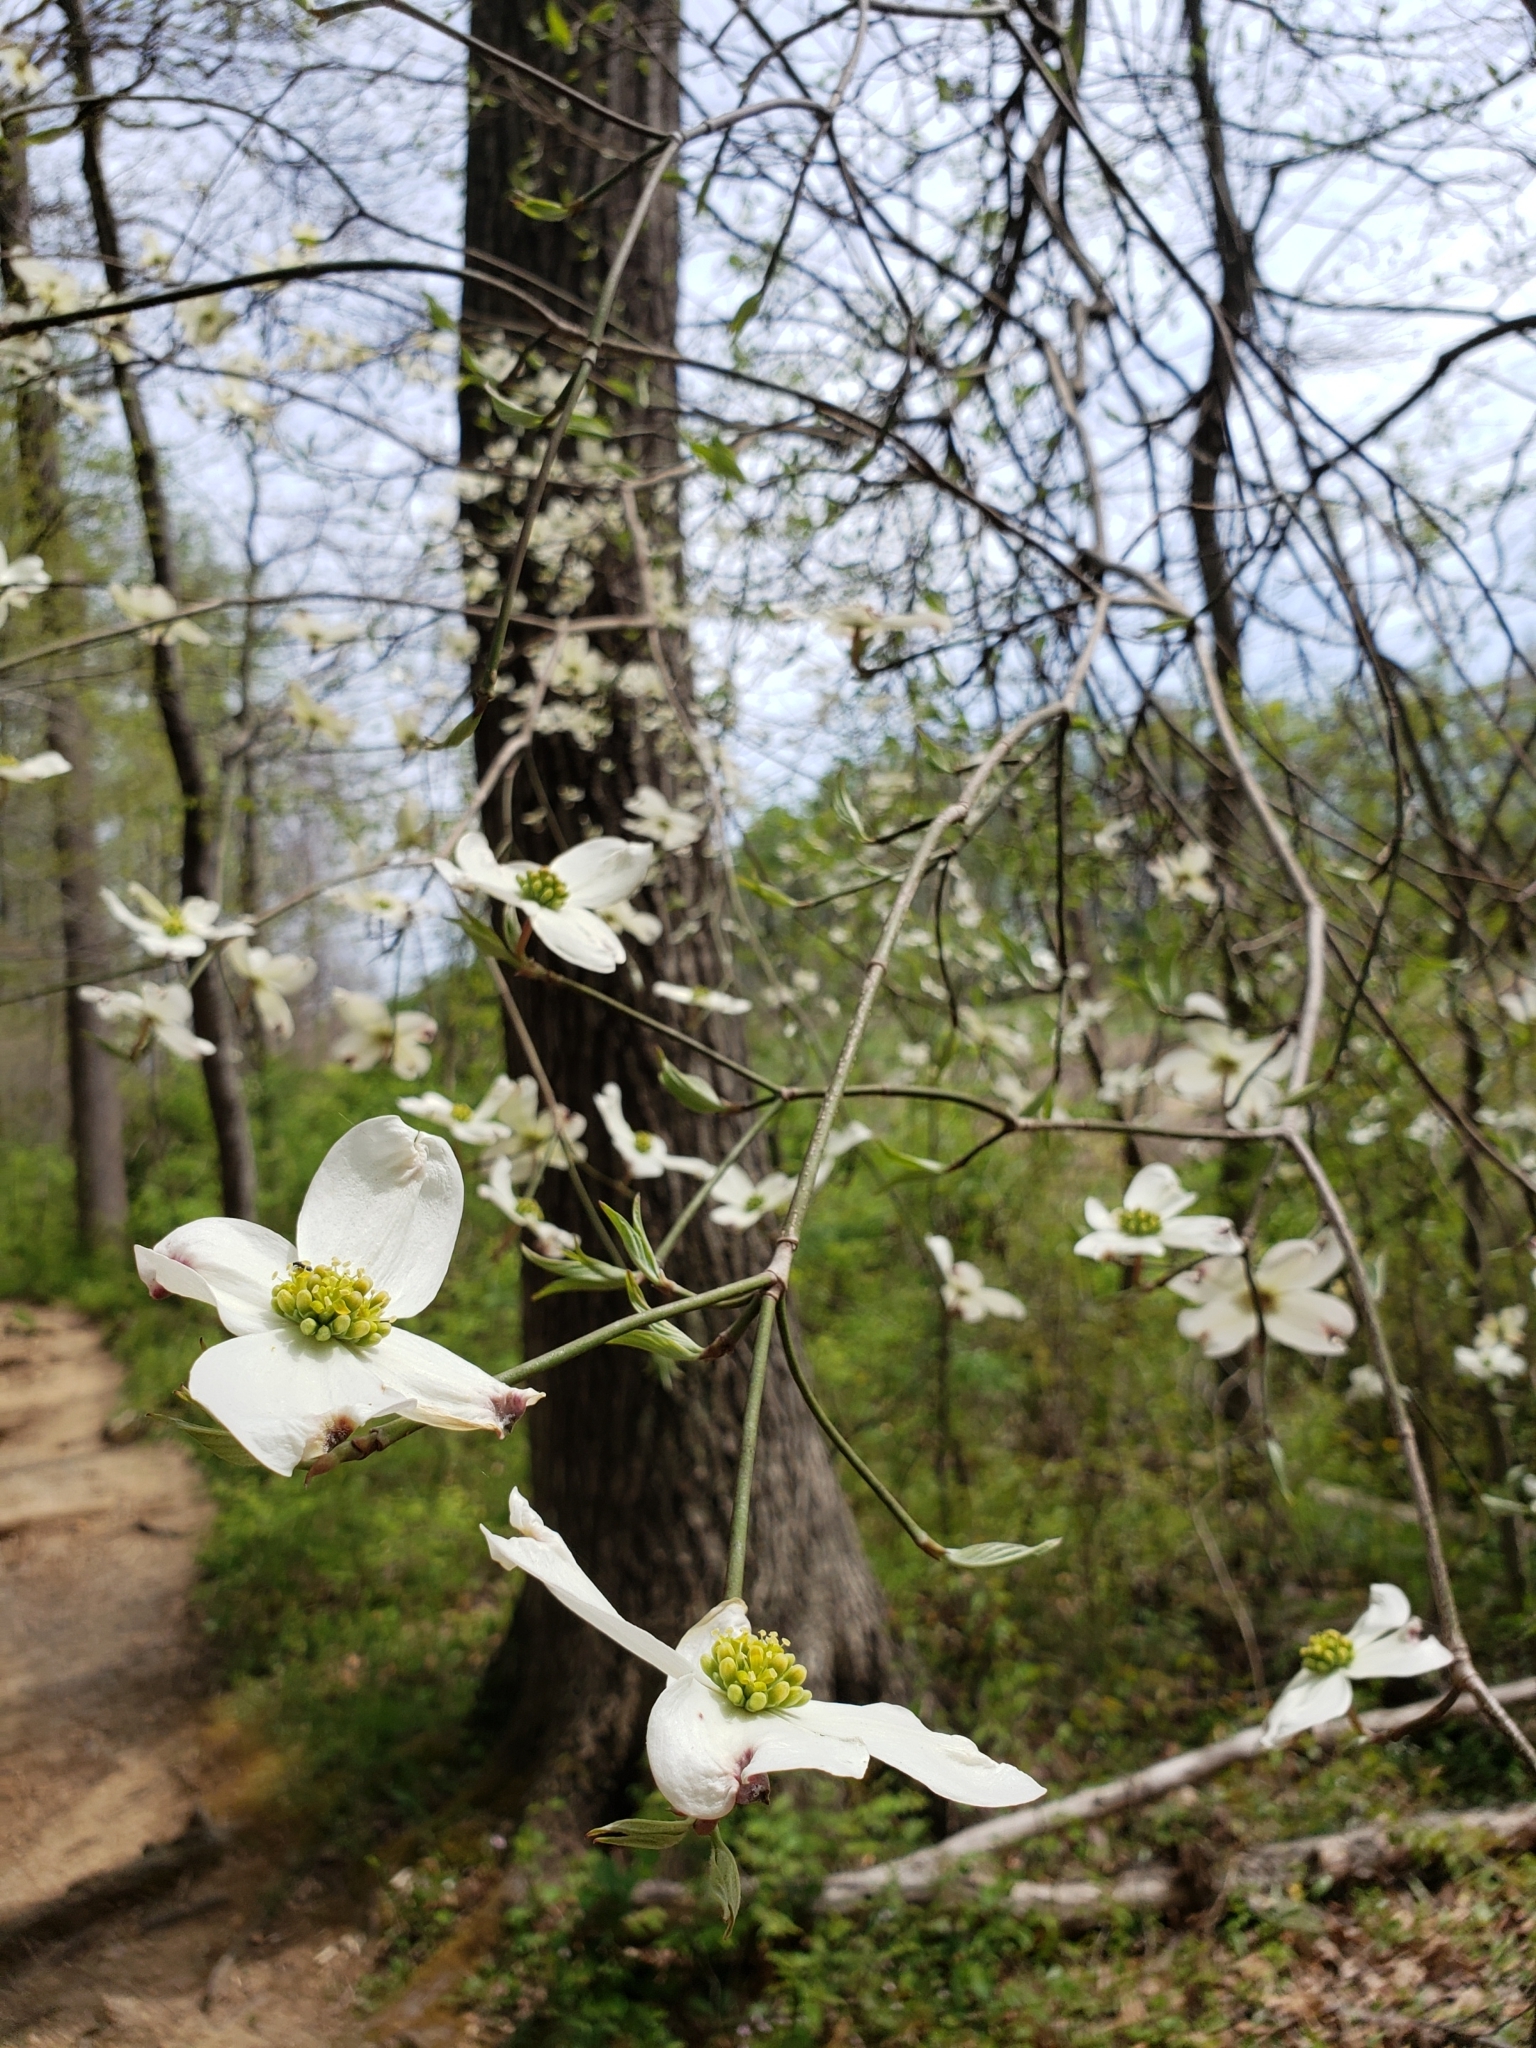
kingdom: Plantae
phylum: Tracheophyta
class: Magnoliopsida
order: Cornales
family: Cornaceae
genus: Cornus
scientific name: Cornus florida
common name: Flowering dogwood
